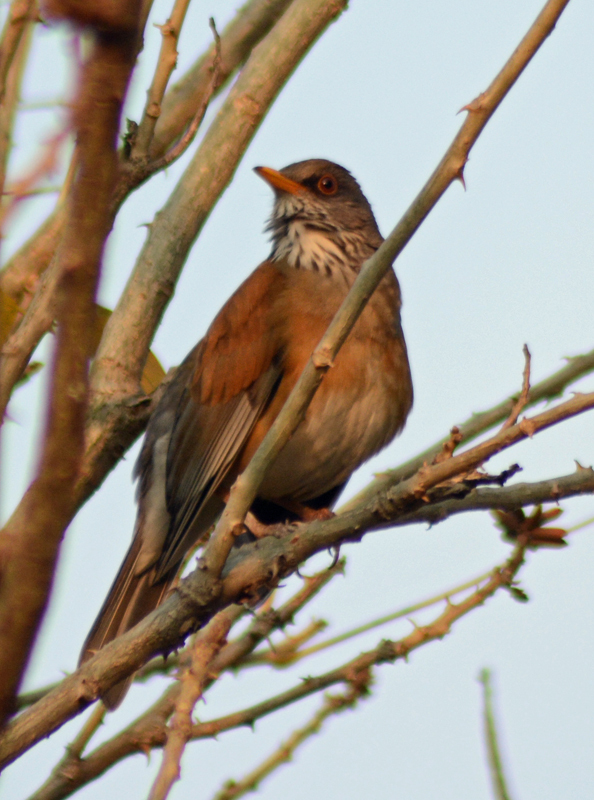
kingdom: Animalia
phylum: Chordata
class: Aves
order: Passeriformes
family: Turdidae
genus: Turdus
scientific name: Turdus rufopalliatus
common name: Rufous-backed robin
